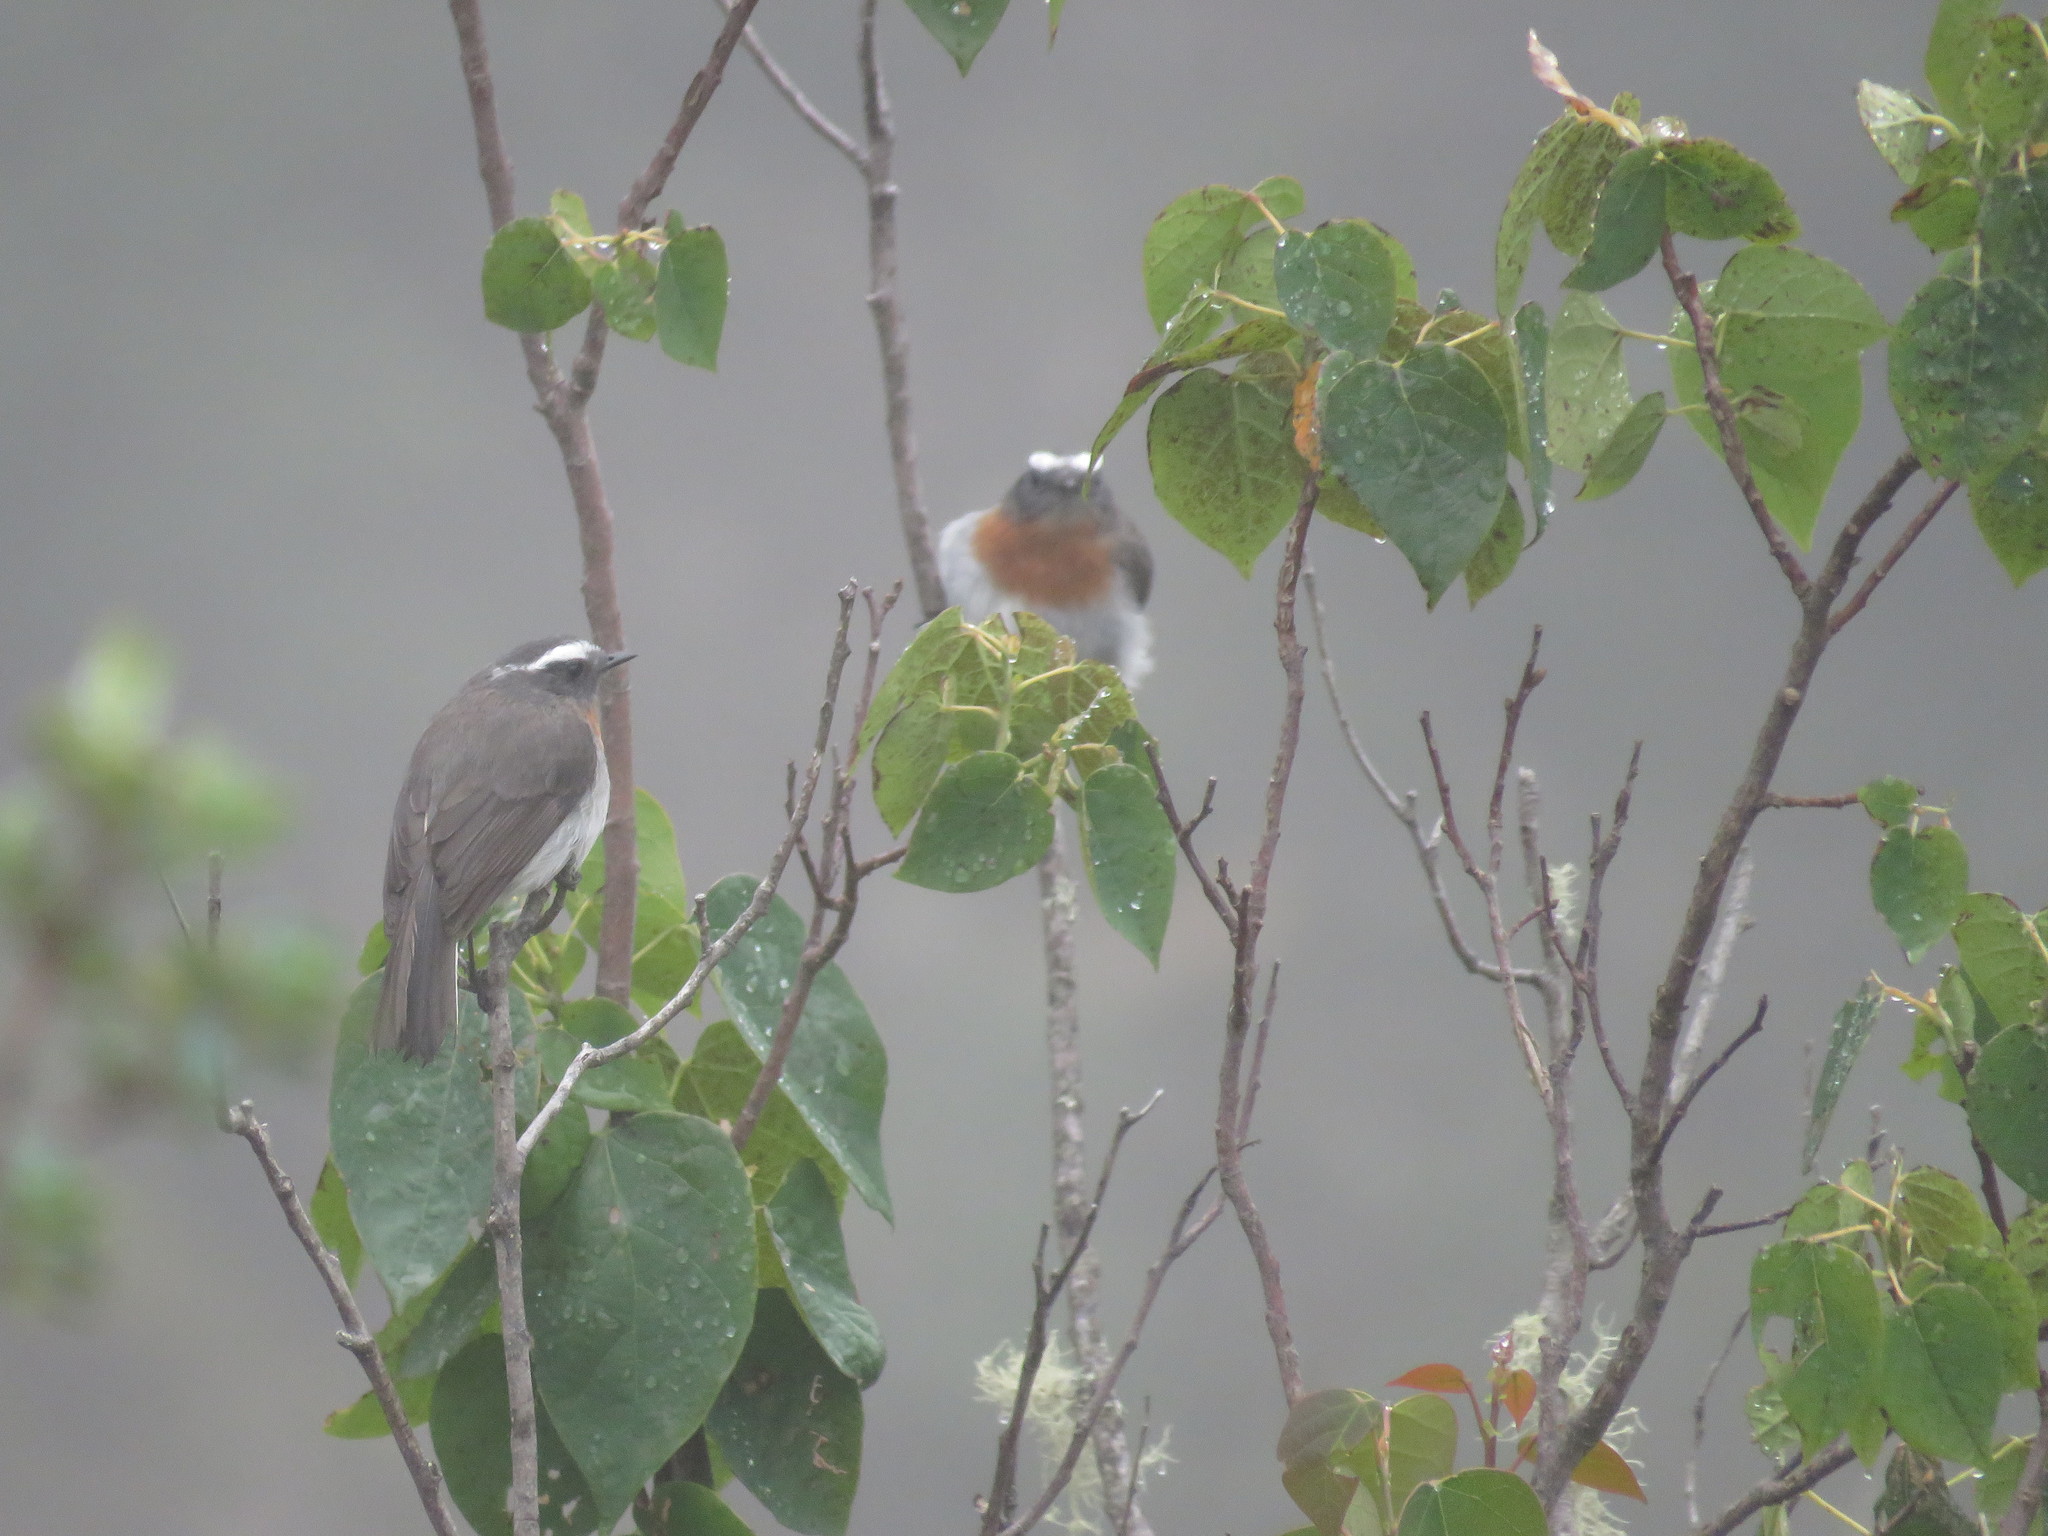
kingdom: Animalia
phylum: Chordata
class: Aves
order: Passeriformes
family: Tyrannidae
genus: Ochthoeca
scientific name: Ochthoeca rufipectoralis
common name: Rufous-breasted chat-tyrant
